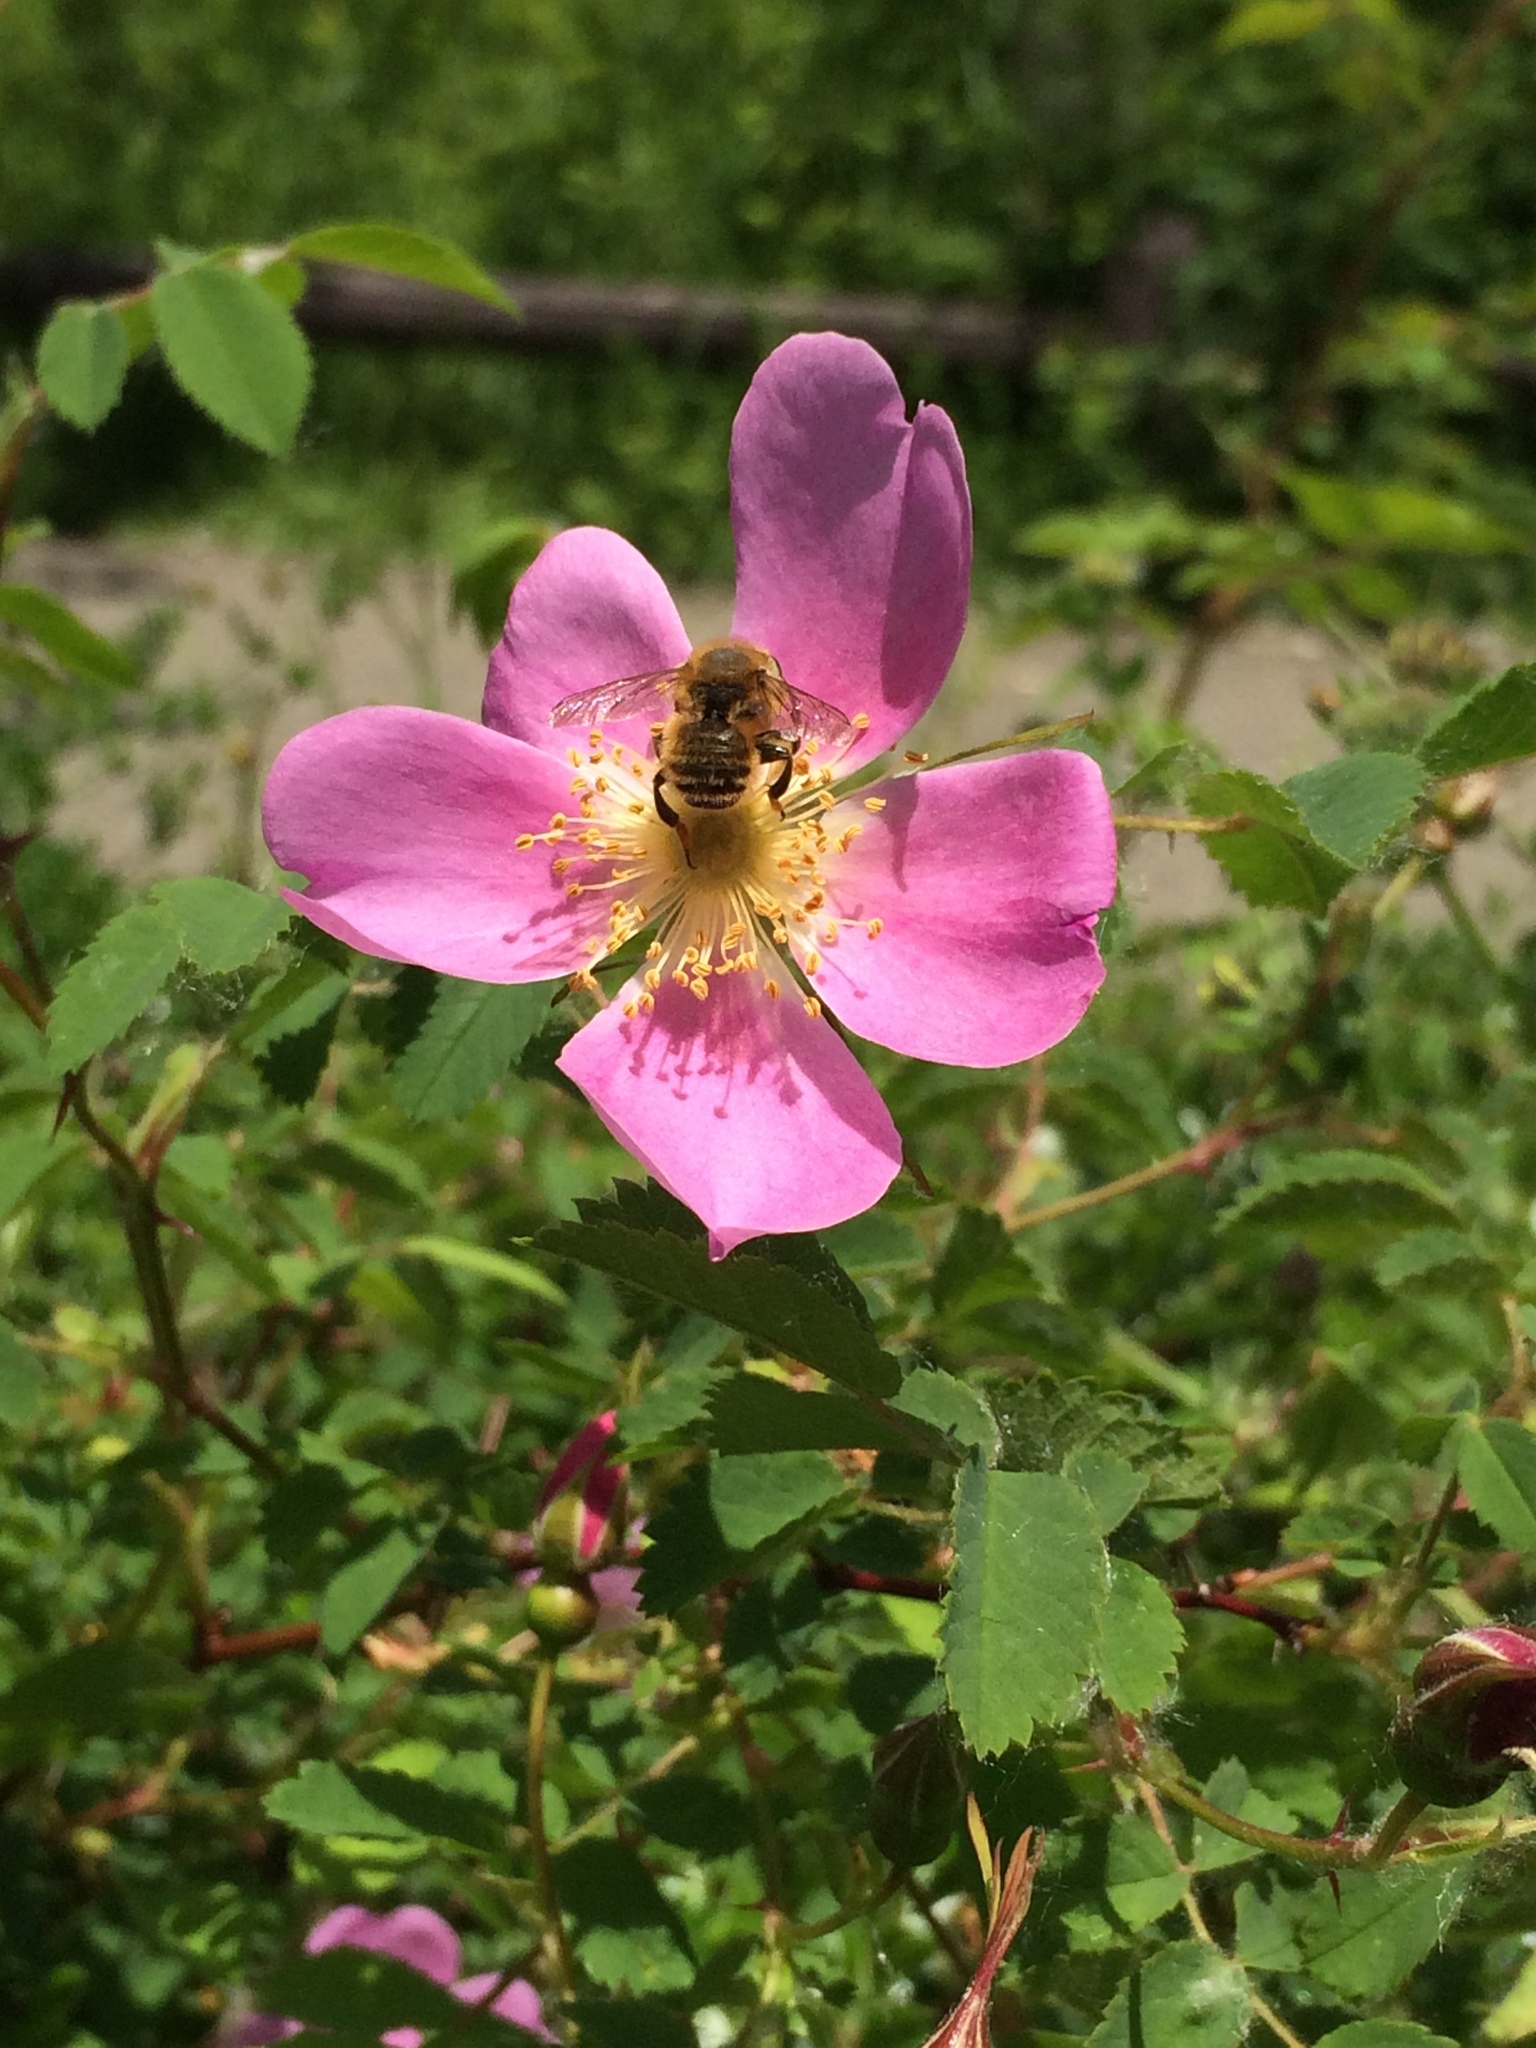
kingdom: Plantae
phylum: Tracheophyta
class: Magnoliopsida
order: Rosales
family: Rosaceae
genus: Rosa
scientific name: Rosa nutkana
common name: Nootka rose
